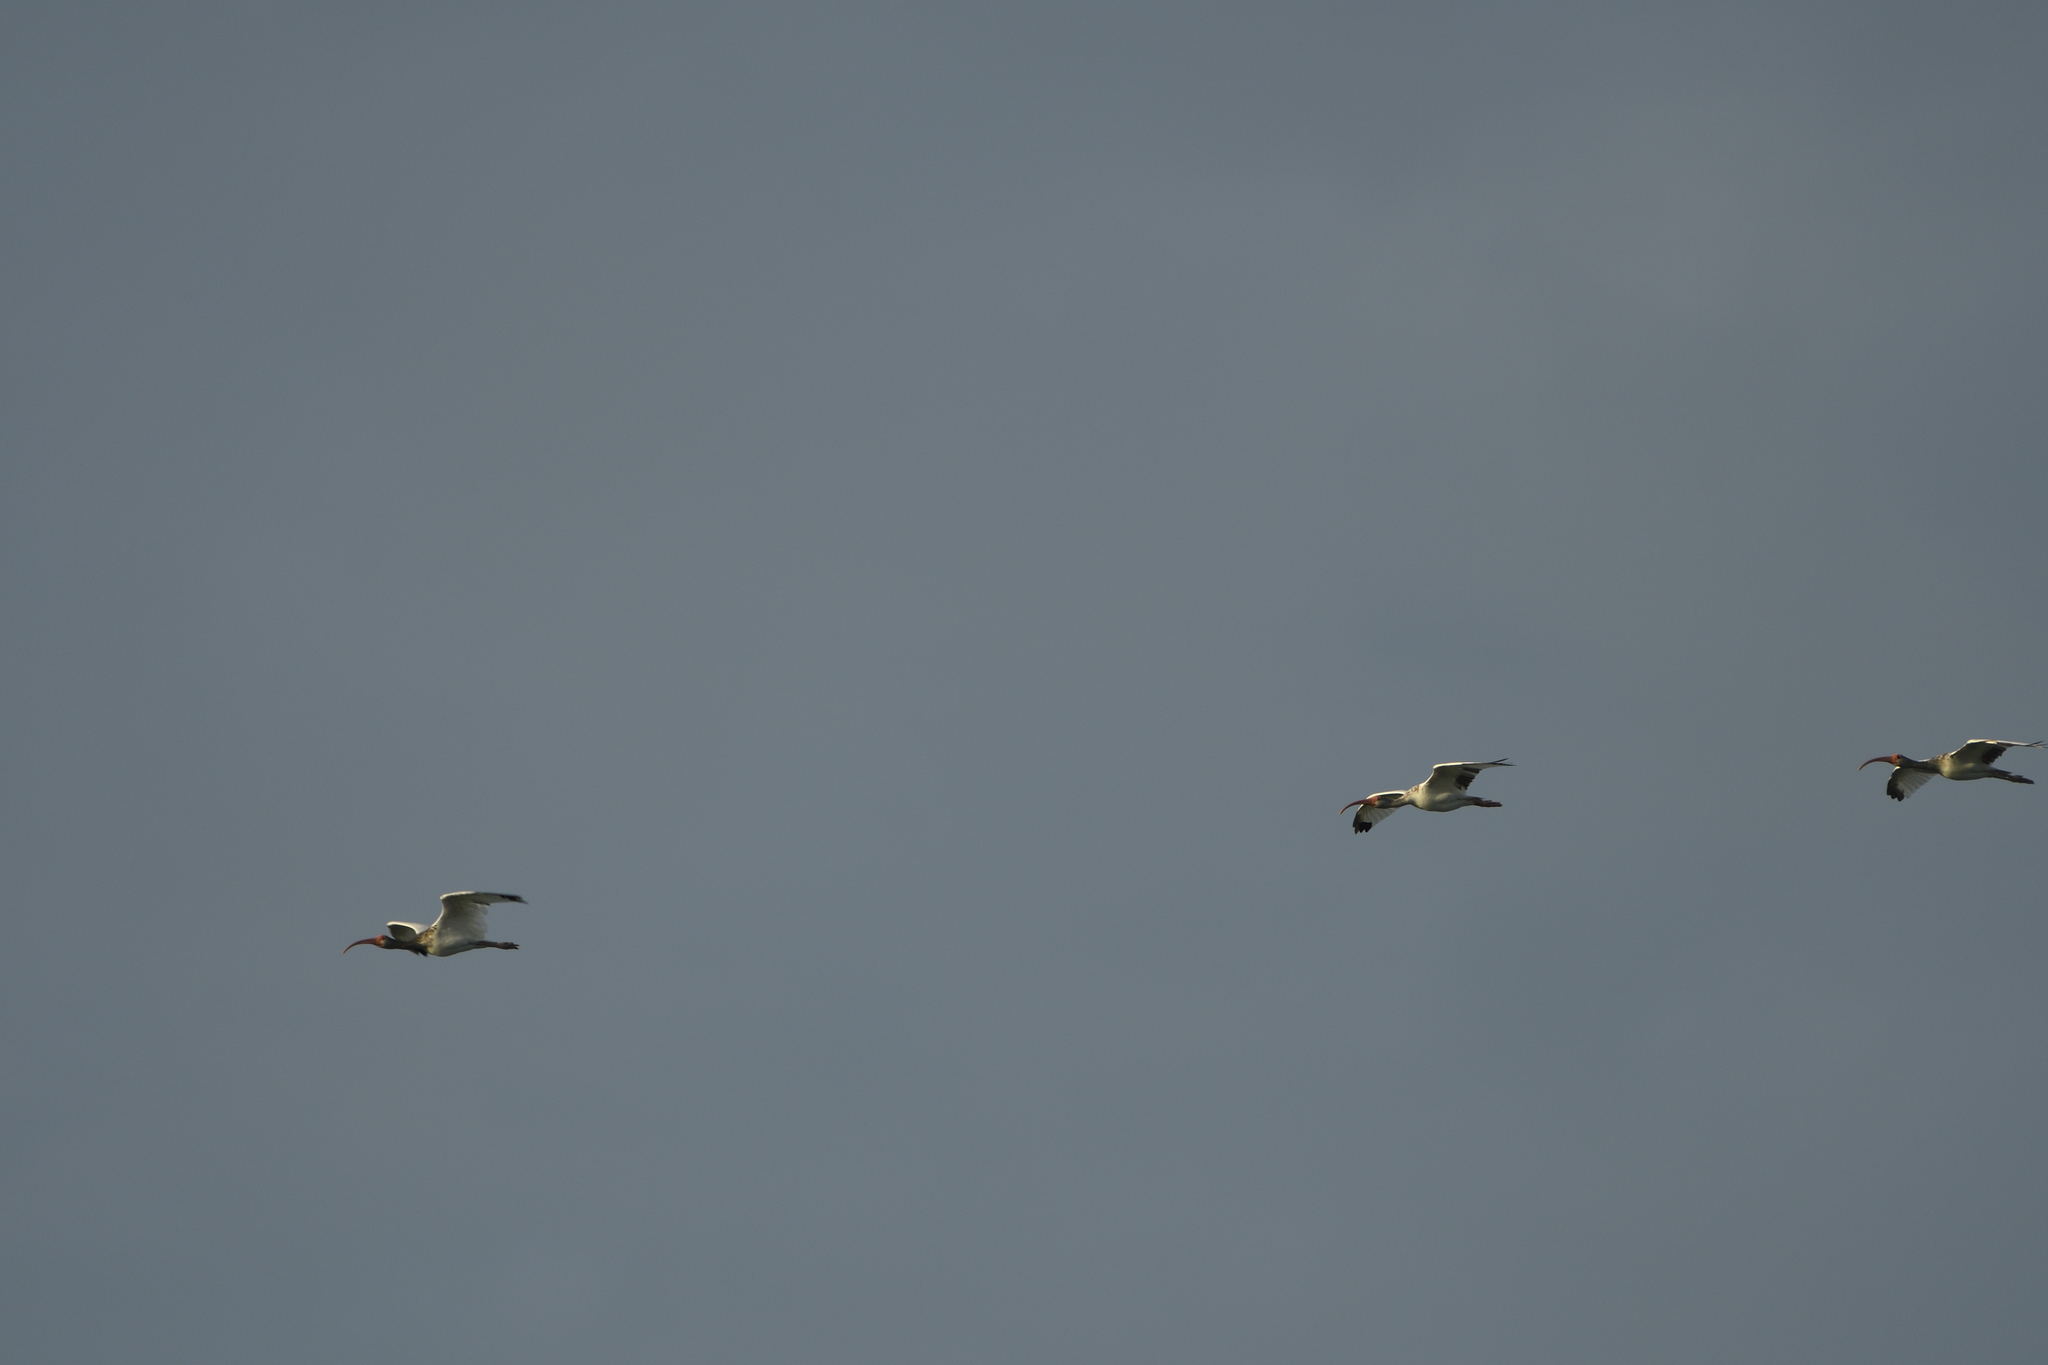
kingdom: Animalia
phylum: Chordata
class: Aves
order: Pelecaniformes
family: Threskiornithidae
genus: Eudocimus
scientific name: Eudocimus albus
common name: White ibis
